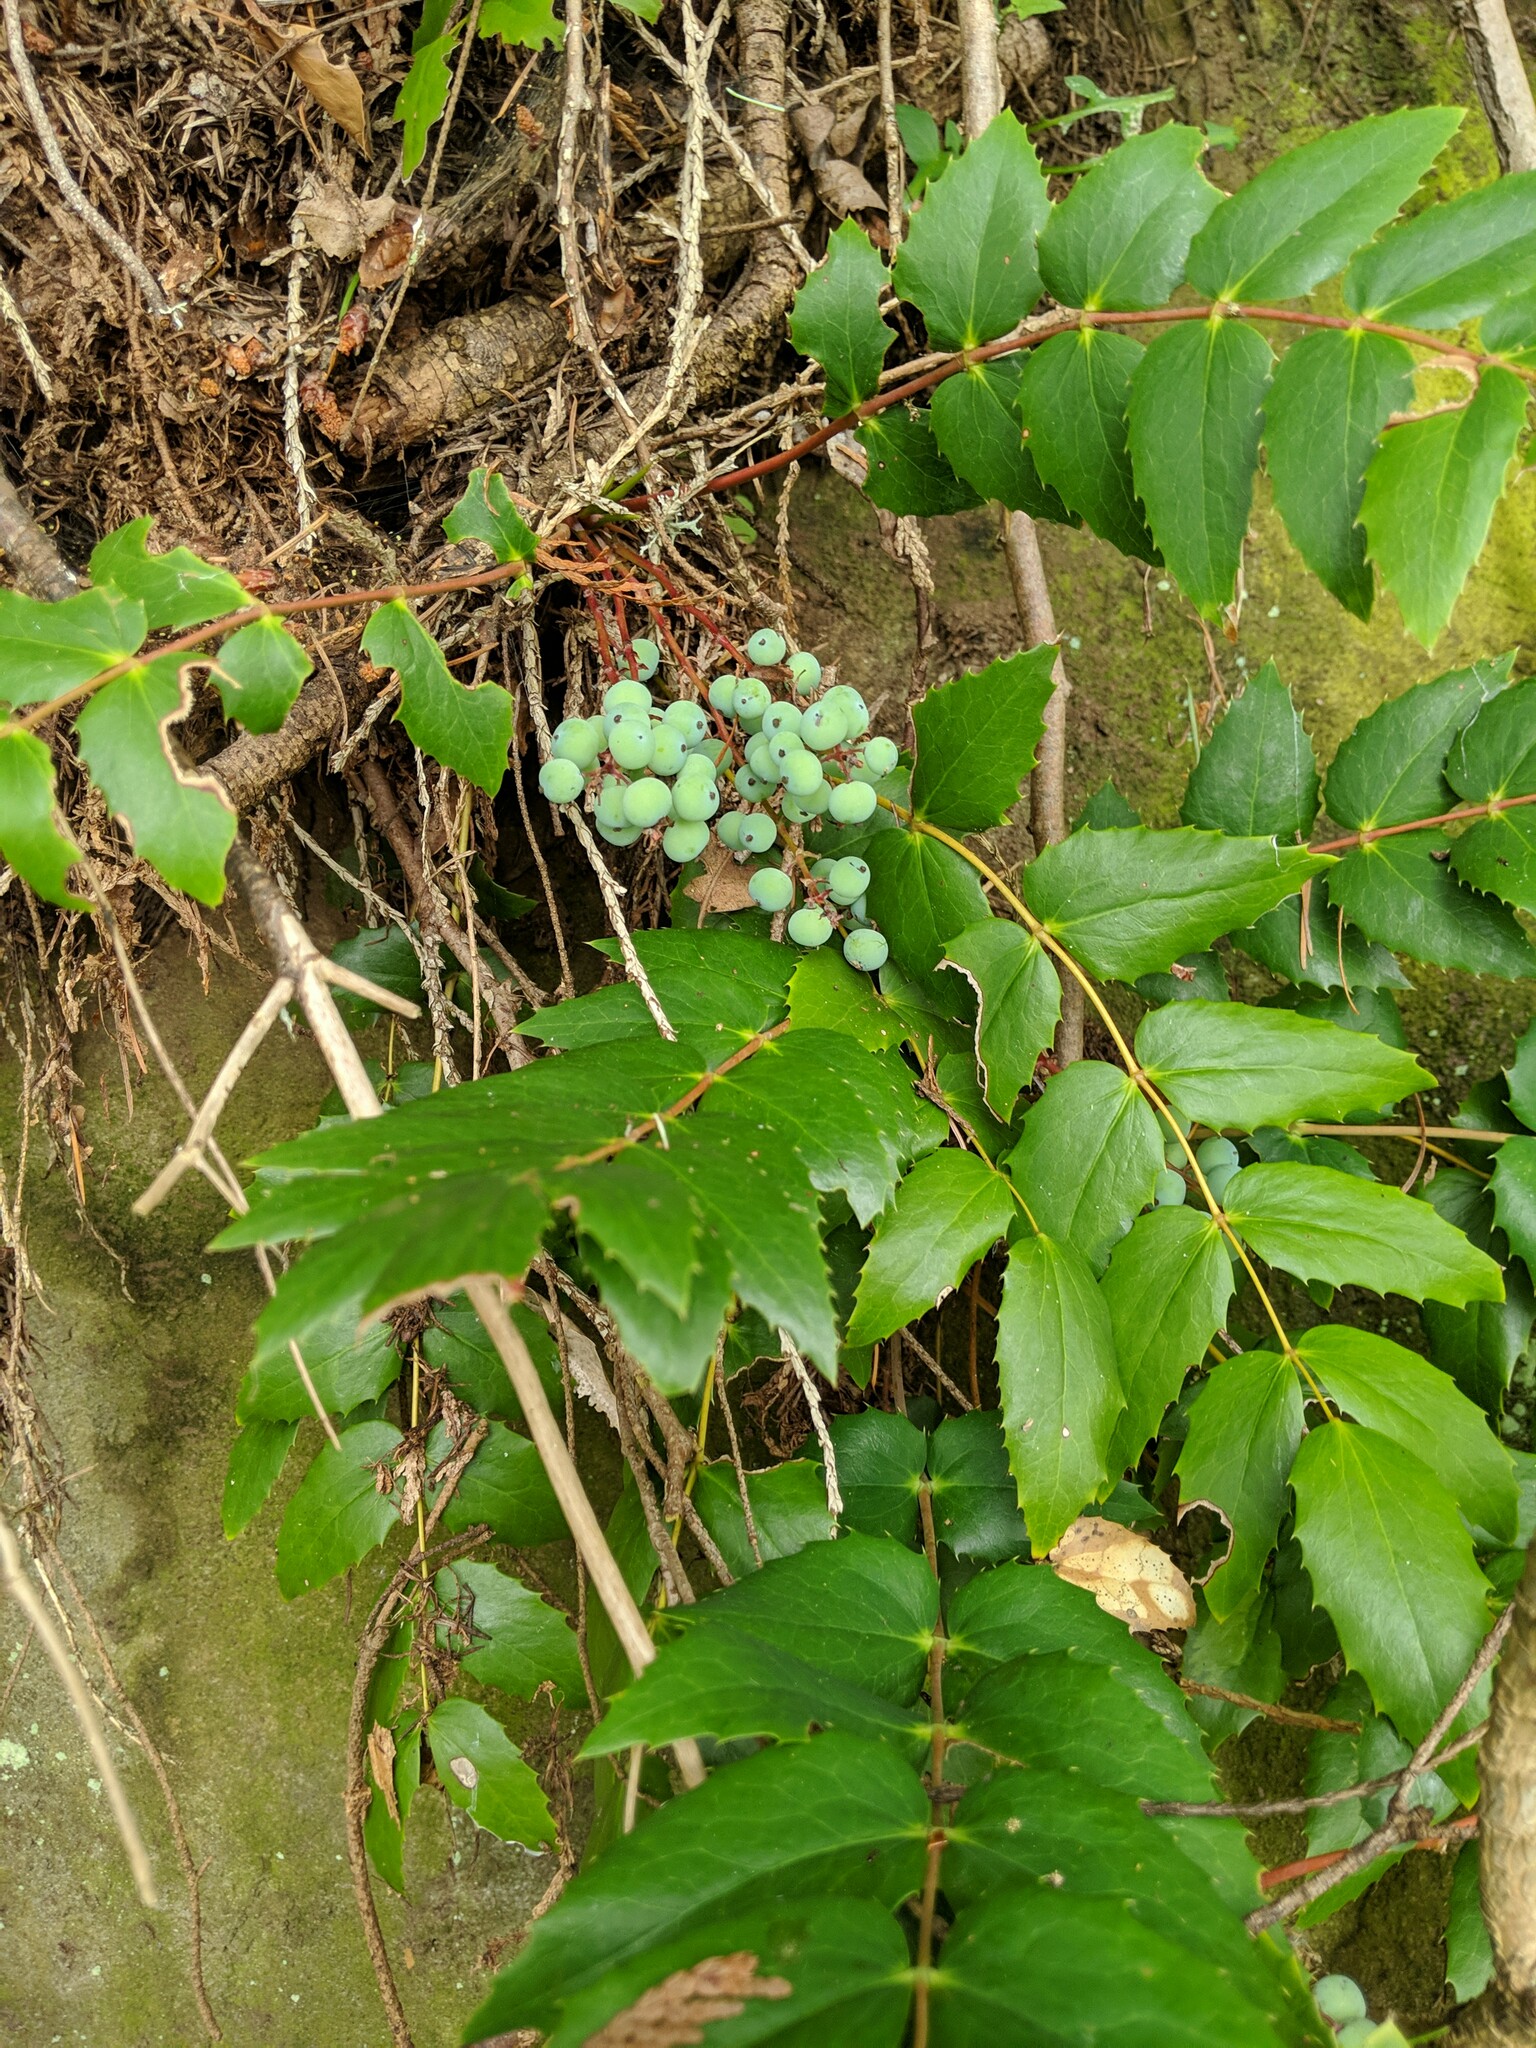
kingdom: Plantae
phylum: Tracheophyta
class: Magnoliopsida
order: Ranunculales
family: Berberidaceae
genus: Mahonia
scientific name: Mahonia nervosa
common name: Cascade oregon-grape
